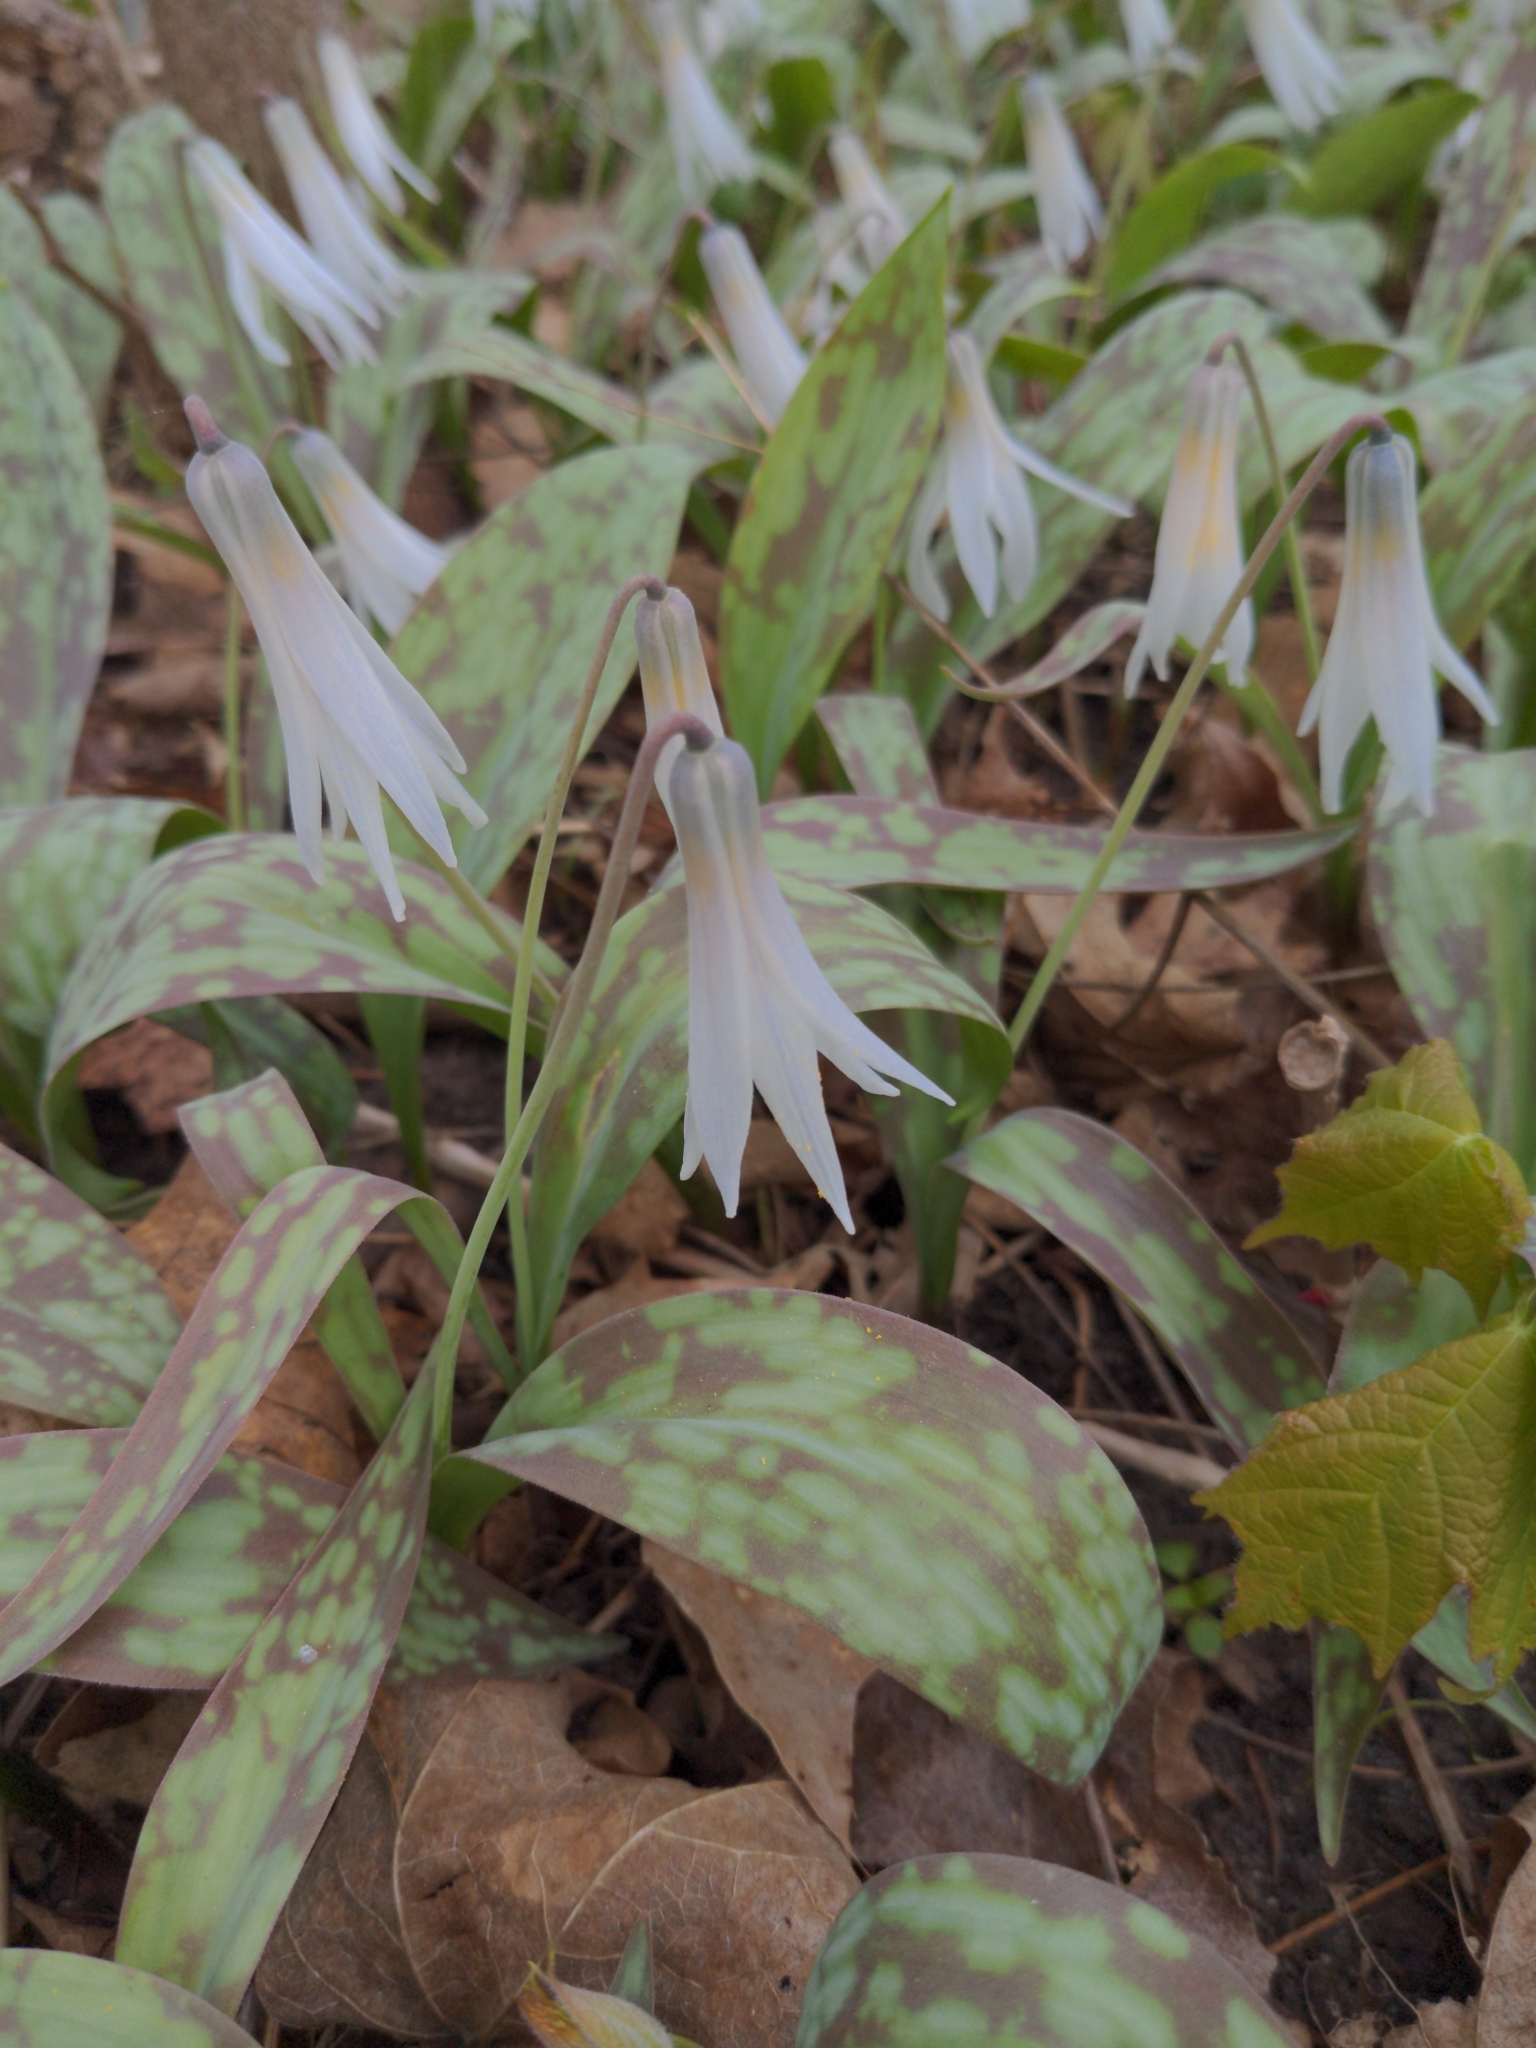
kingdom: Plantae
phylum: Tracheophyta
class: Liliopsida
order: Liliales
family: Liliaceae
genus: Erythronium
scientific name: Erythronium albidum
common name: White trout-lily
